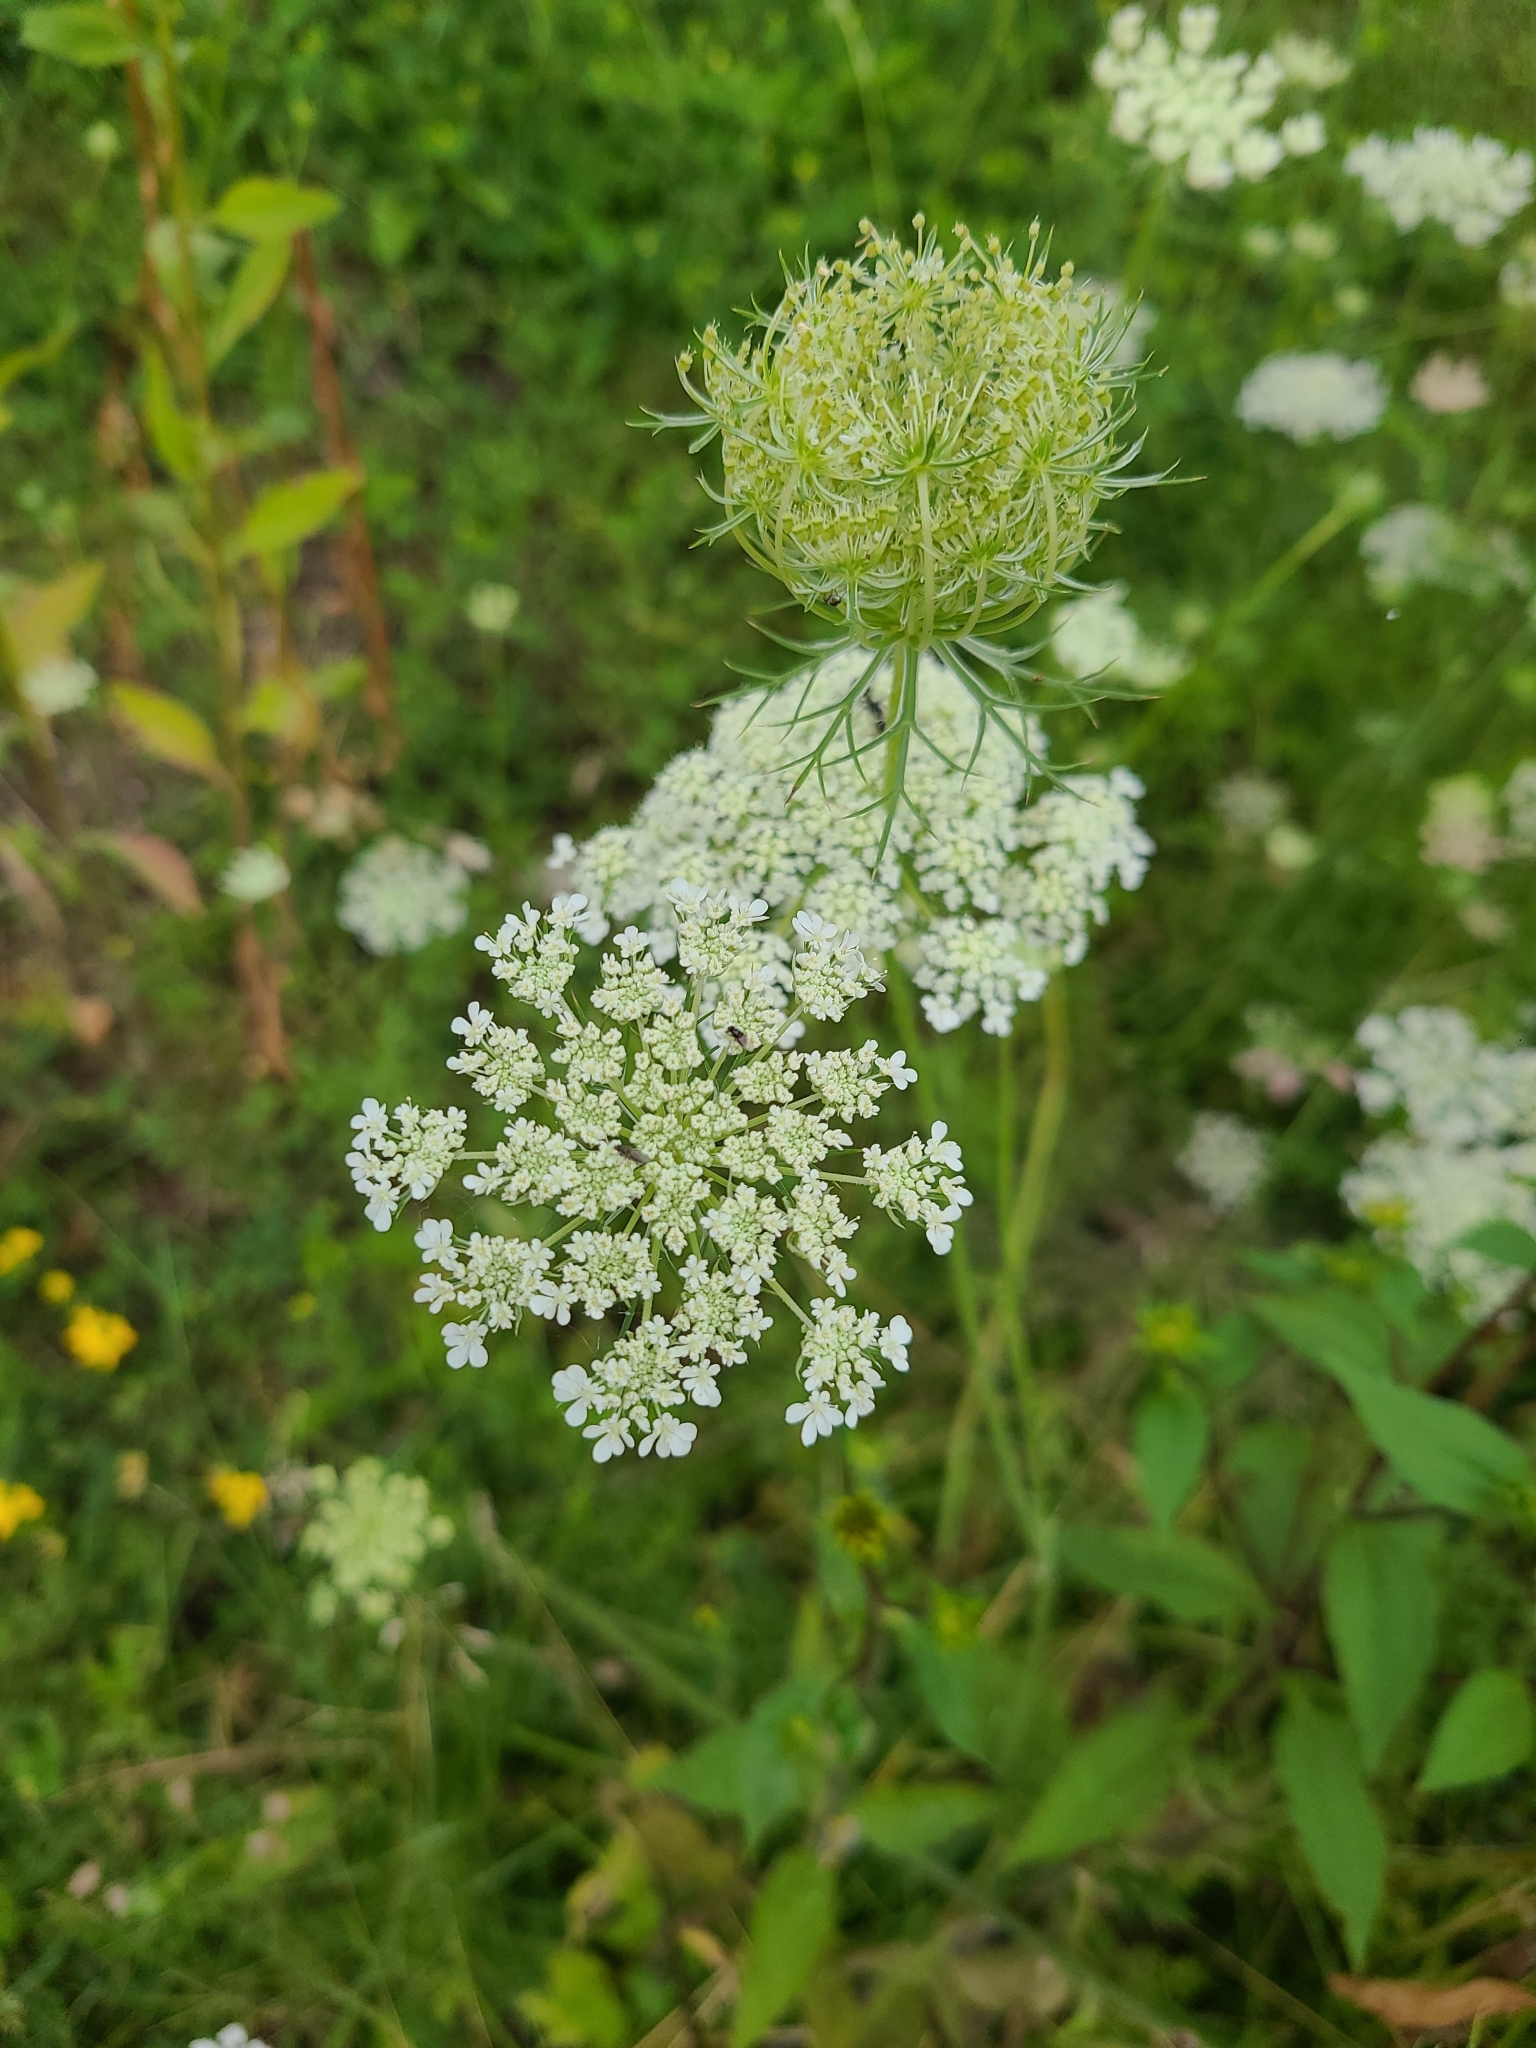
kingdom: Plantae
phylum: Tracheophyta
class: Magnoliopsida
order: Apiales
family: Apiaceae
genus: Daucus
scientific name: Daucus carota
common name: Wild carrot
